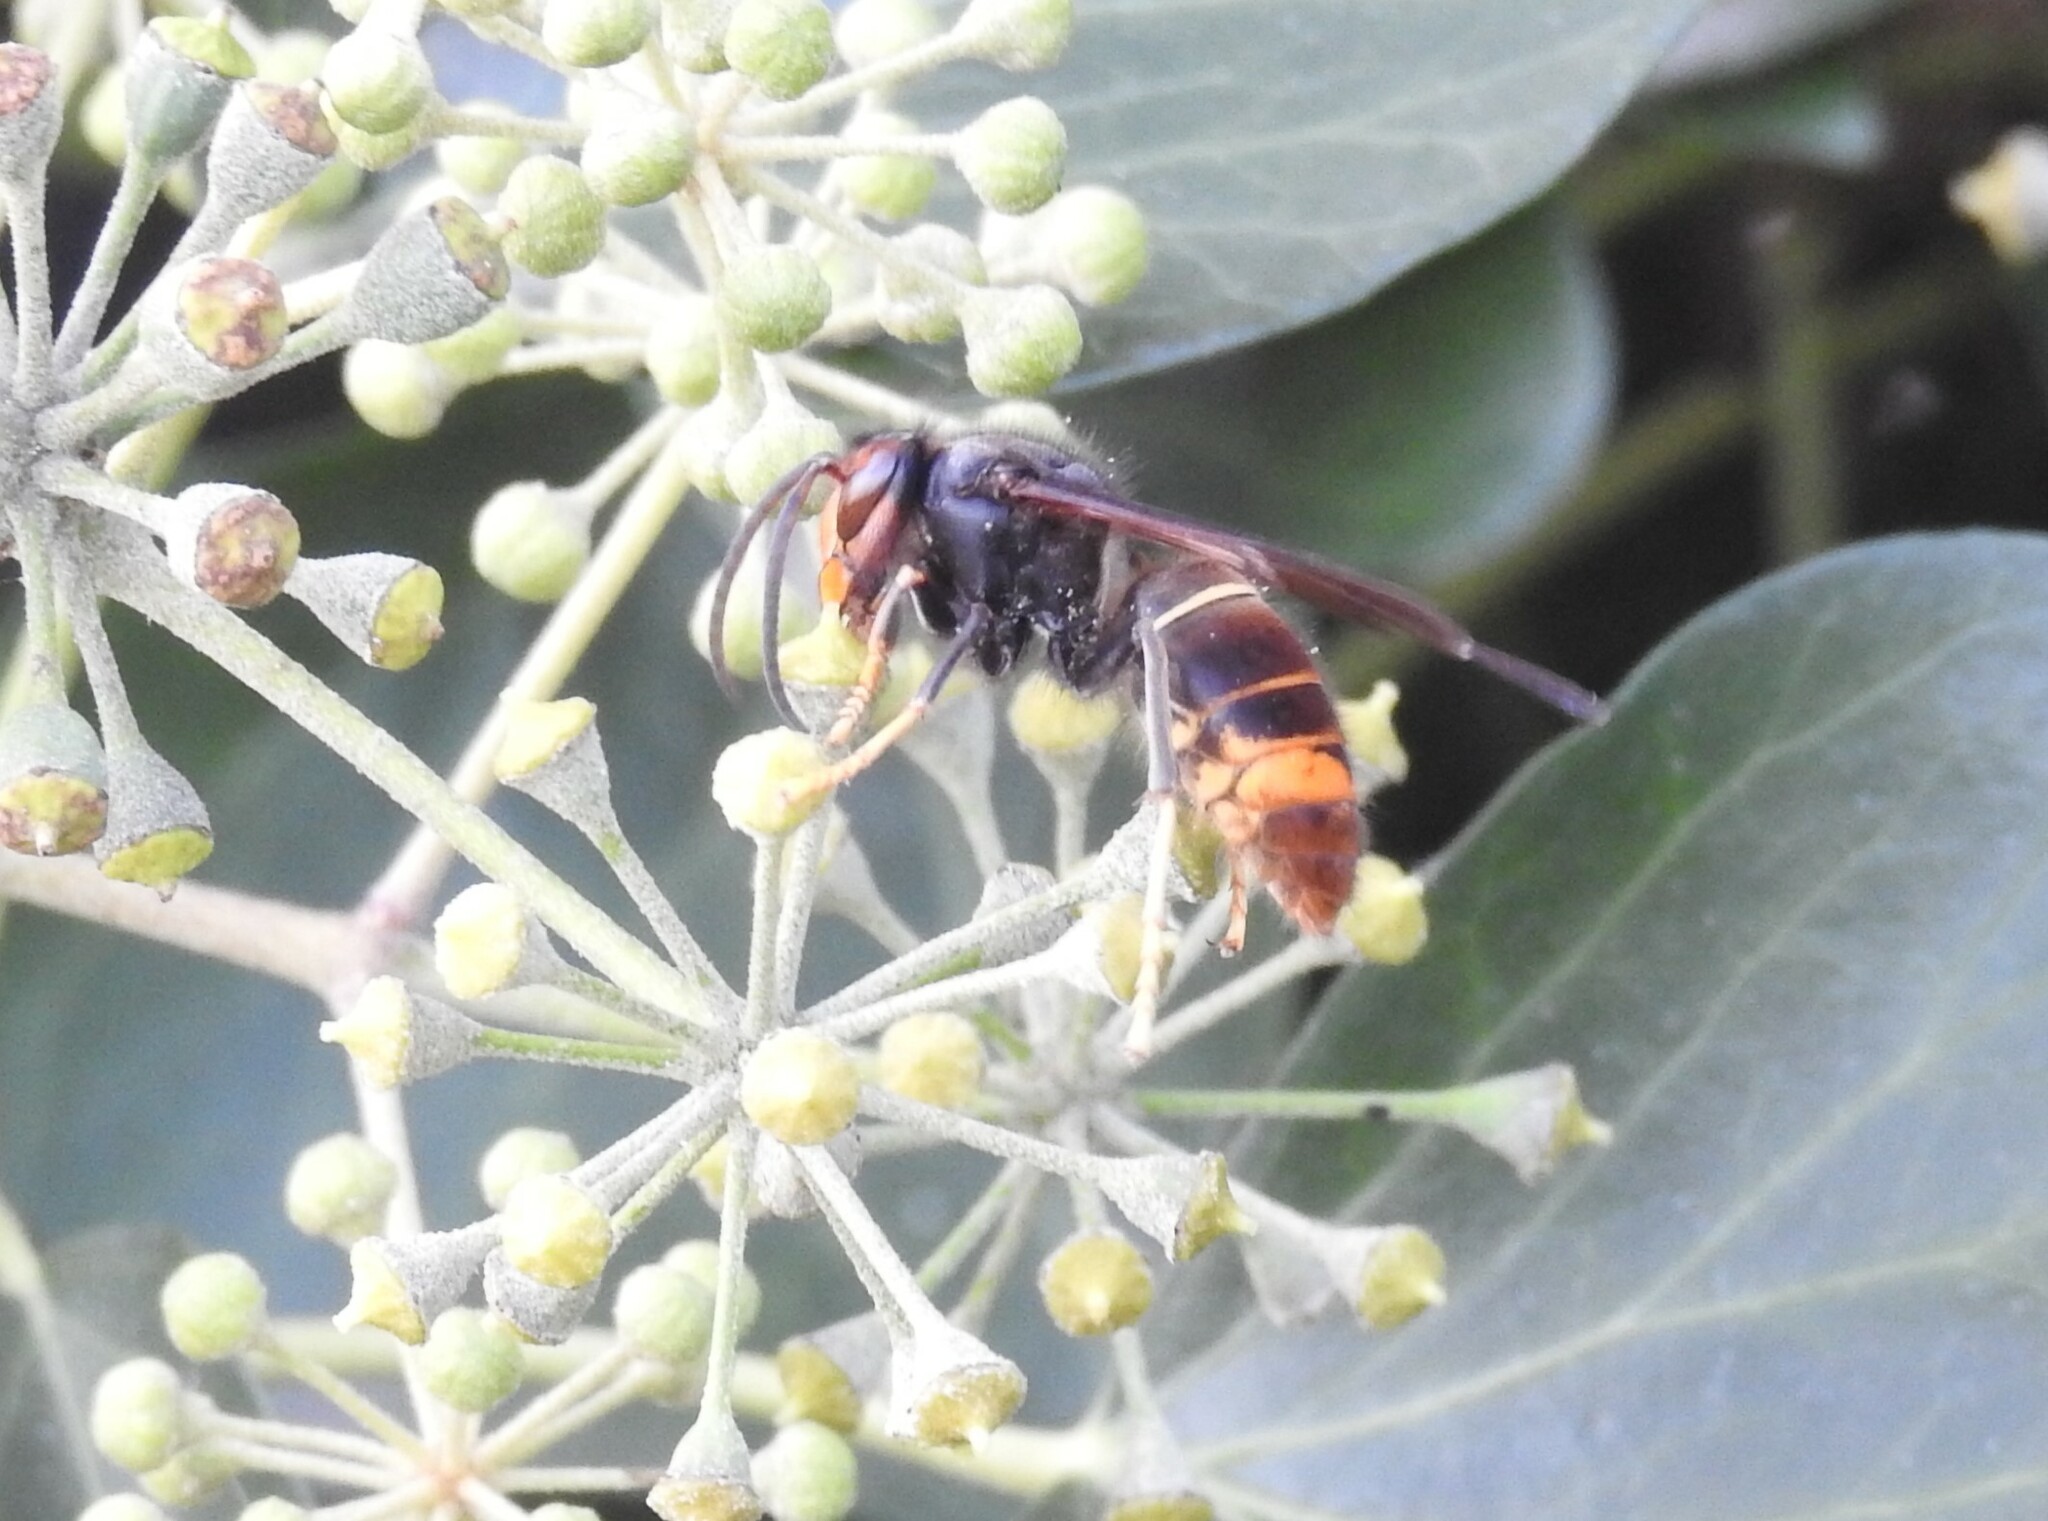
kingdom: Animalia
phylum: Arthropoda
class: Insecta
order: Hymenoptera
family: Vespidae
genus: Vespa
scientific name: Vespa velutina
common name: Asian hornet
